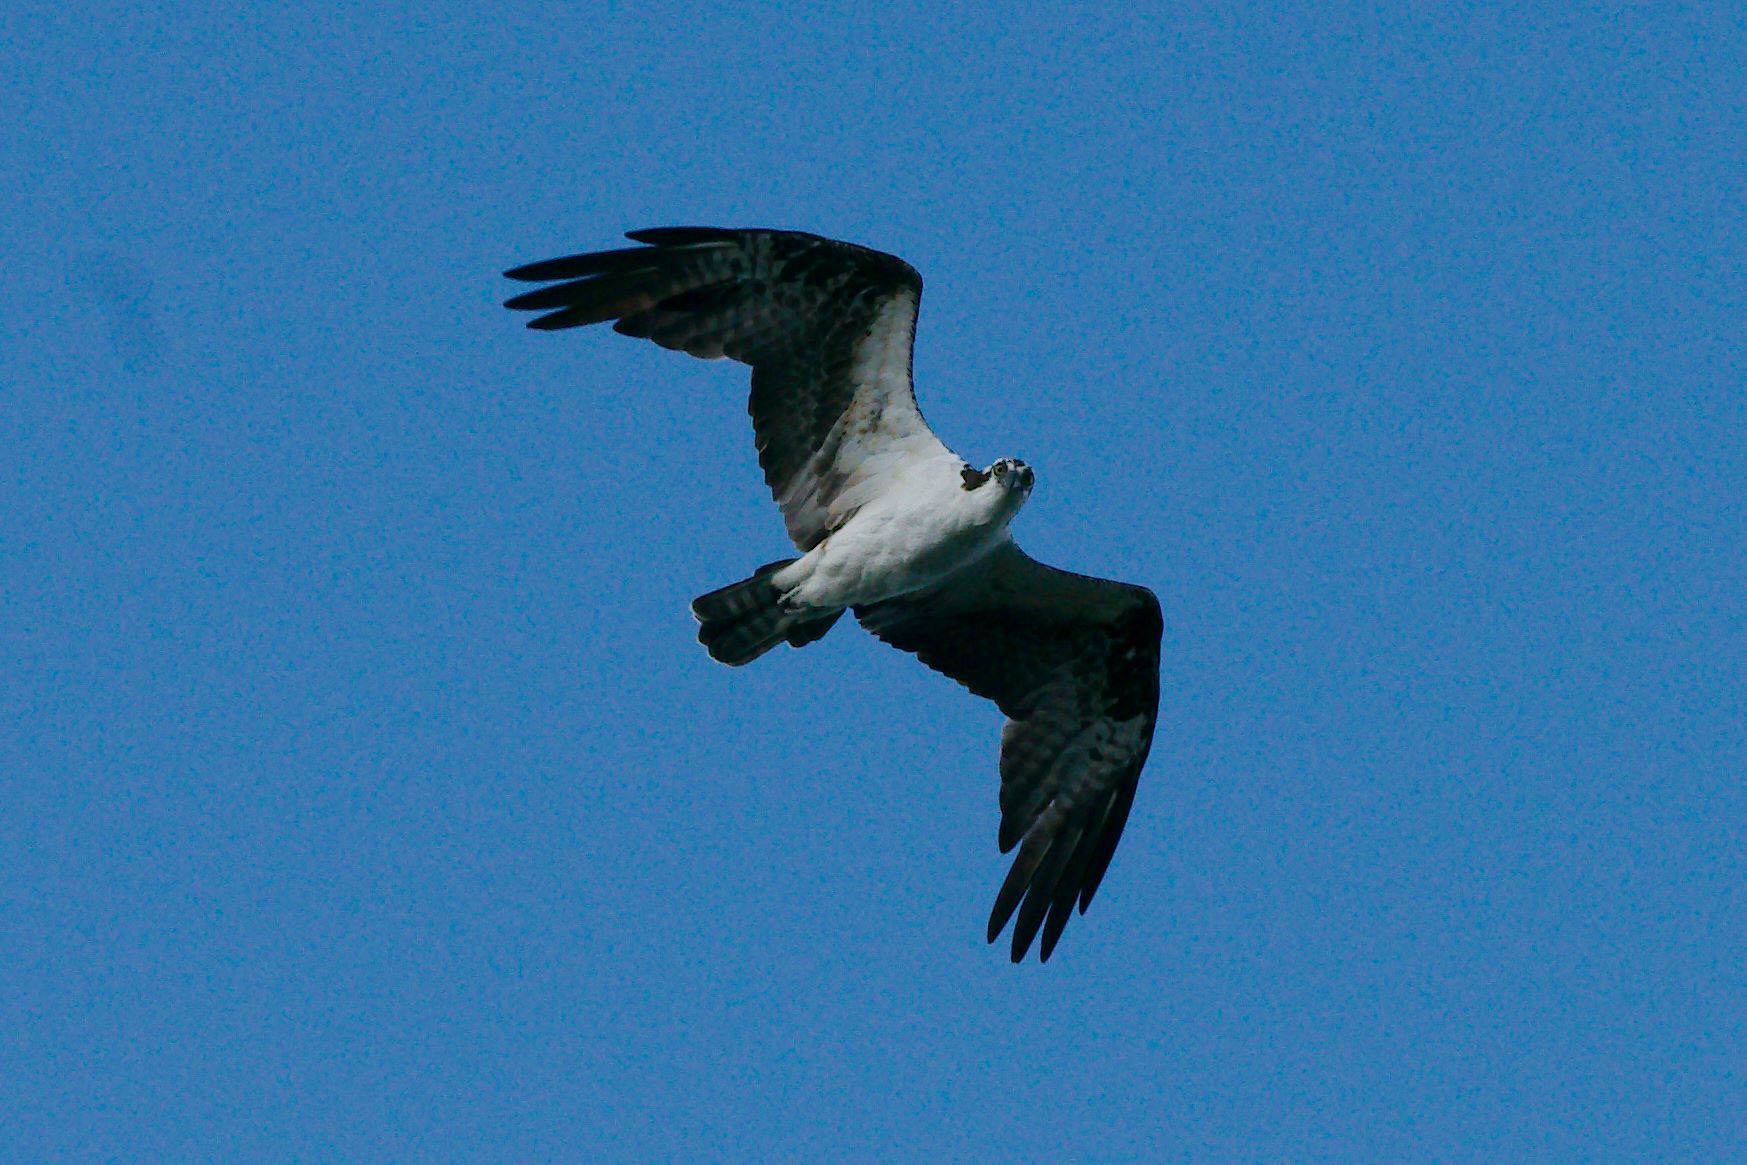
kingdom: Animalia
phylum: Chordata
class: Aves
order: Accipitriformes
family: Pandionidae
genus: Pandion
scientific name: Pandion haliaetus
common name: Osprey
